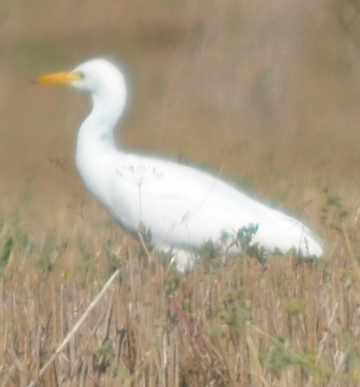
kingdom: Animalia
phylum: Chordata
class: Aves
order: Pelecaniformes
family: Ardeidae
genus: Bubulcus
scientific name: Bubulcus ibis
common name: Cattle egret
